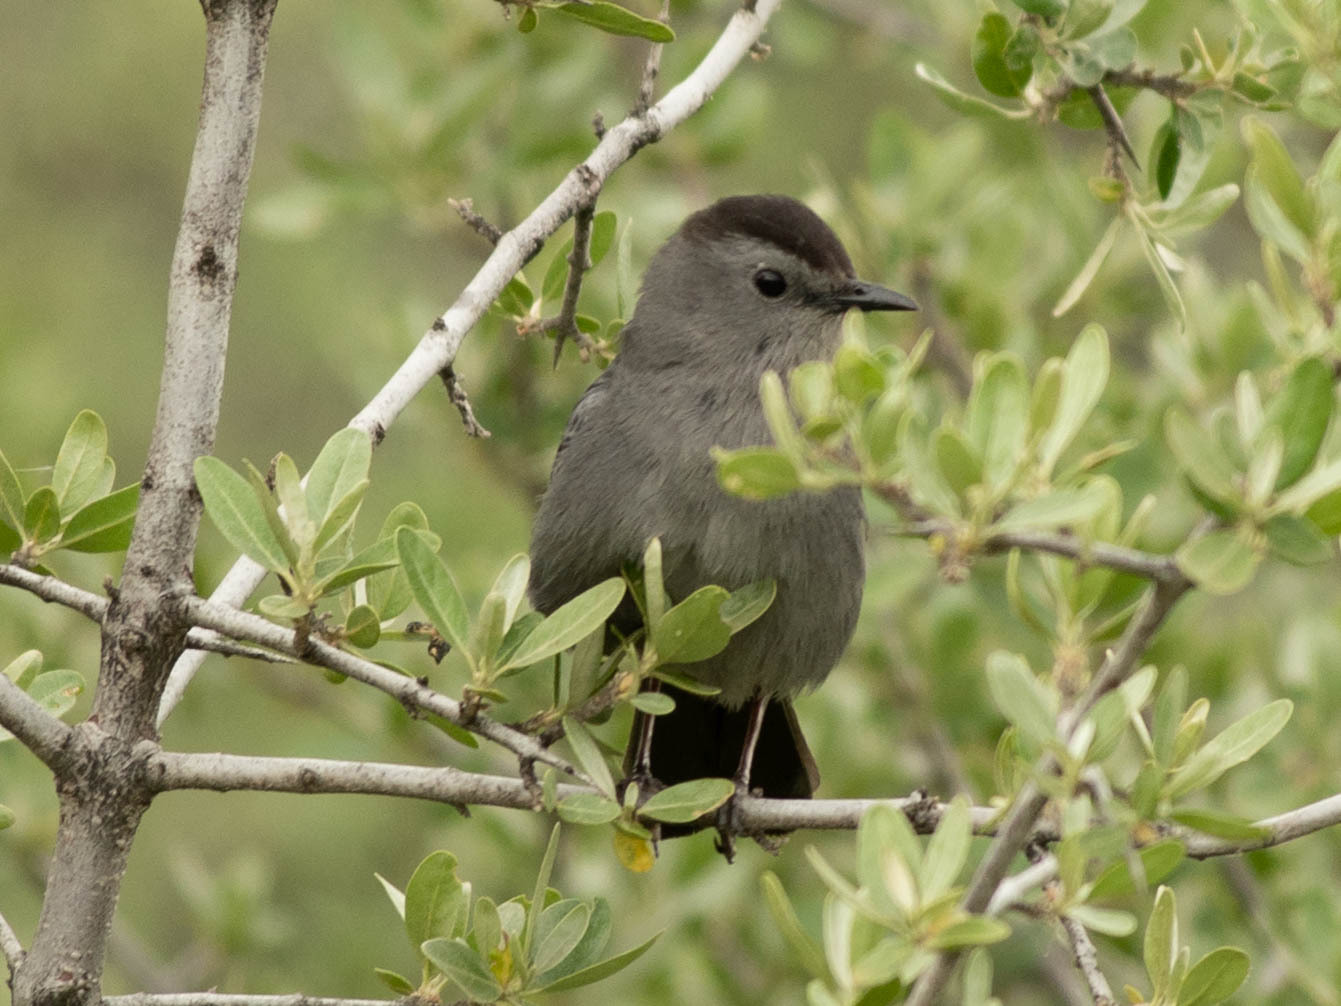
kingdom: Animalia
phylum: Chordata
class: Aves
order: Passeriformes
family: Mimidae
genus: Dumetella
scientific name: Dumetella carolinensis
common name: Gray catbird
